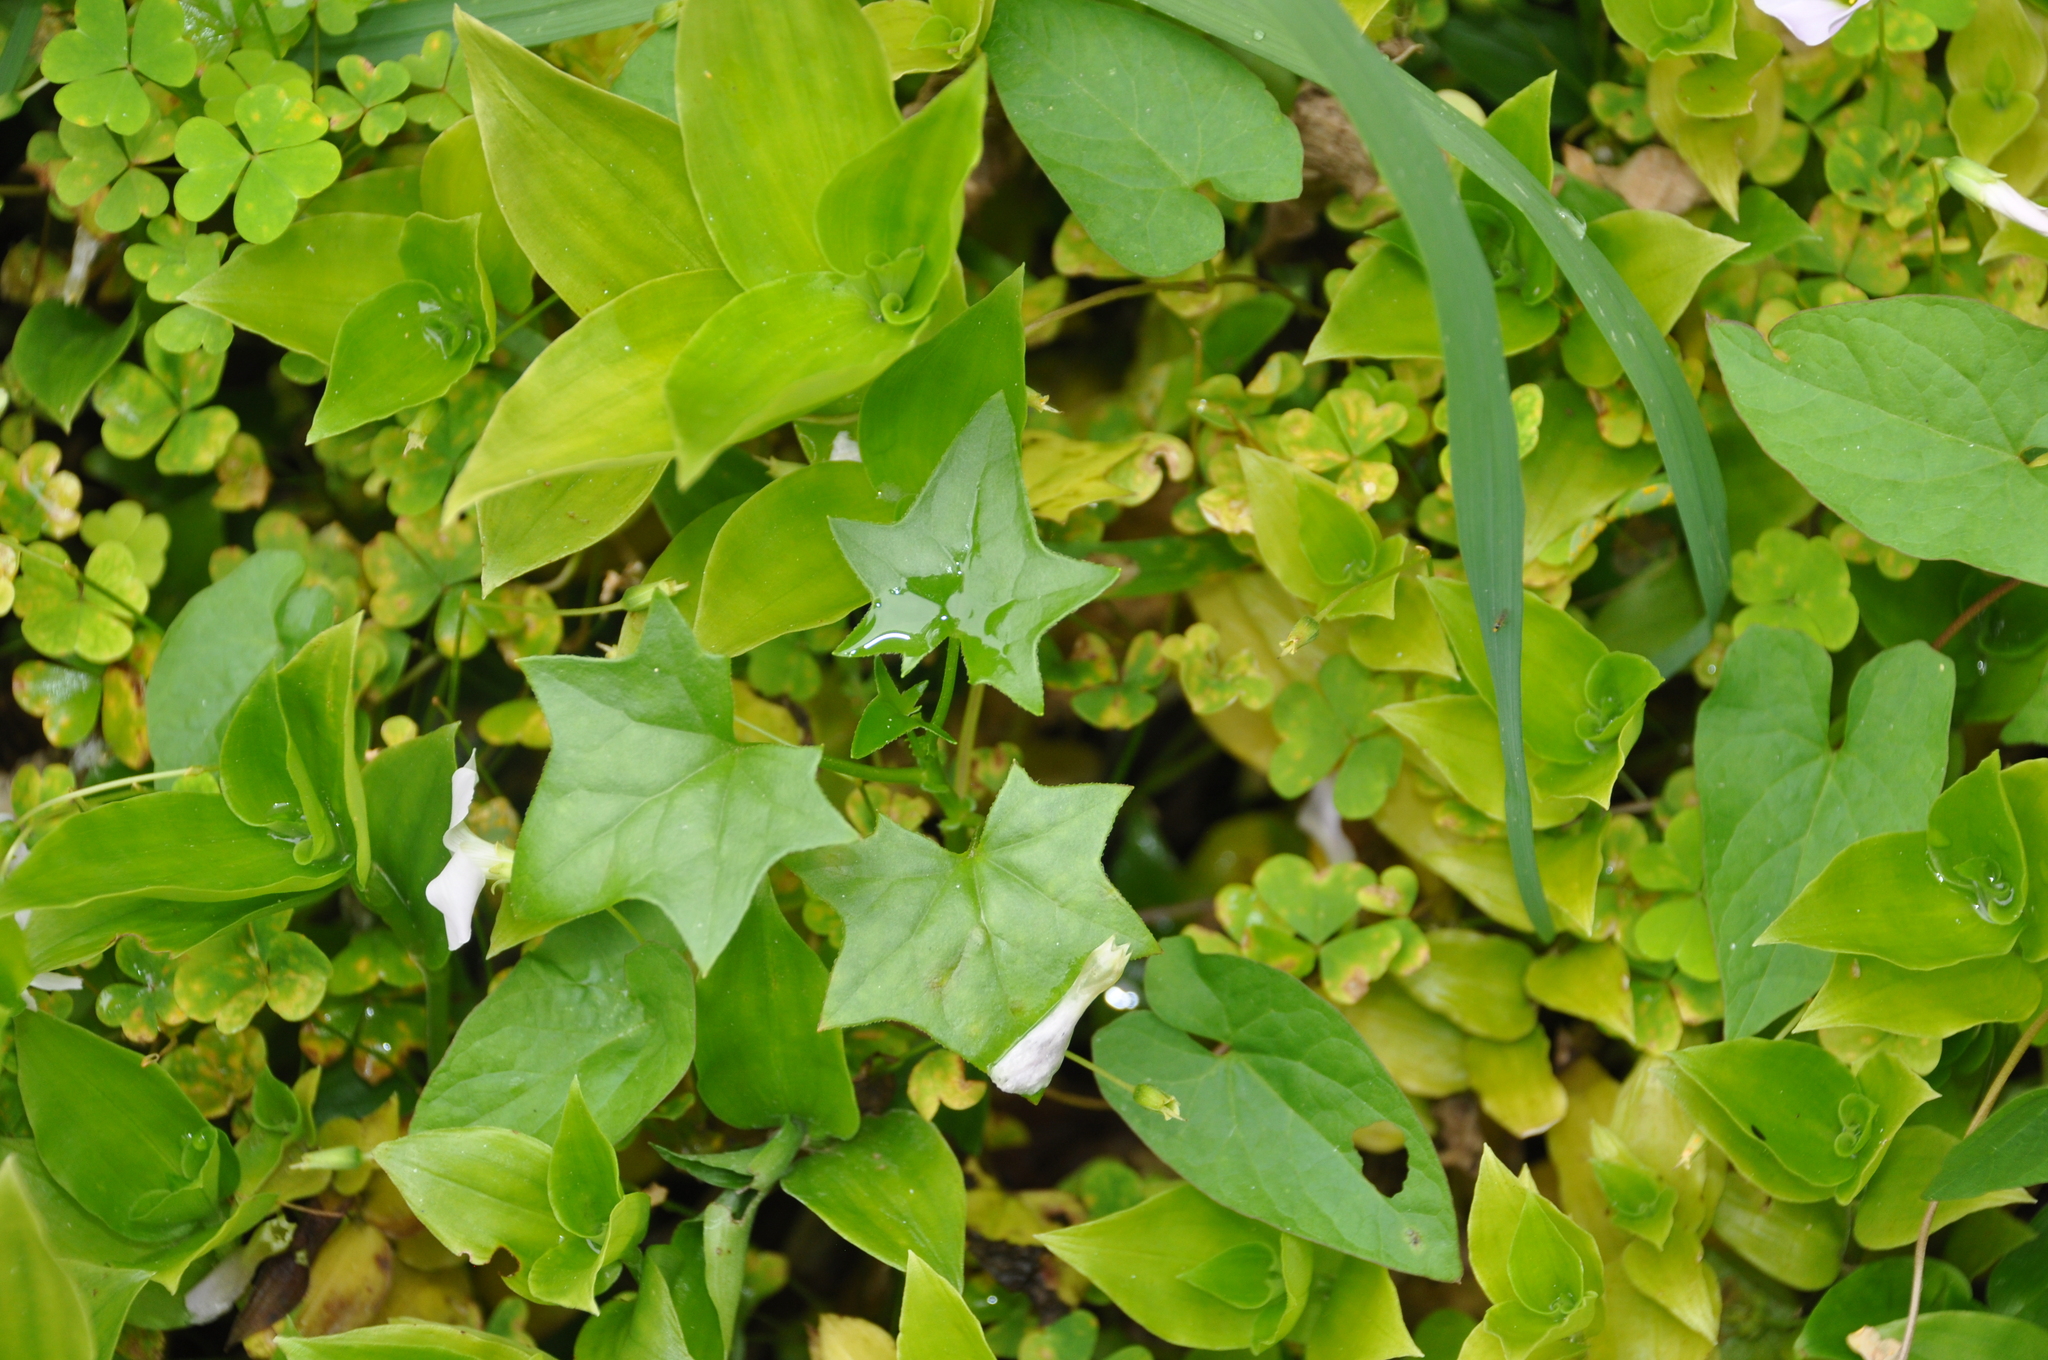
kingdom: Plantae
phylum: Tracheophyta
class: Magnoliopsida
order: Asterales
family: Asteraceae
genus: Delairea
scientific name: Delairea odorata
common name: Cape-ivy
